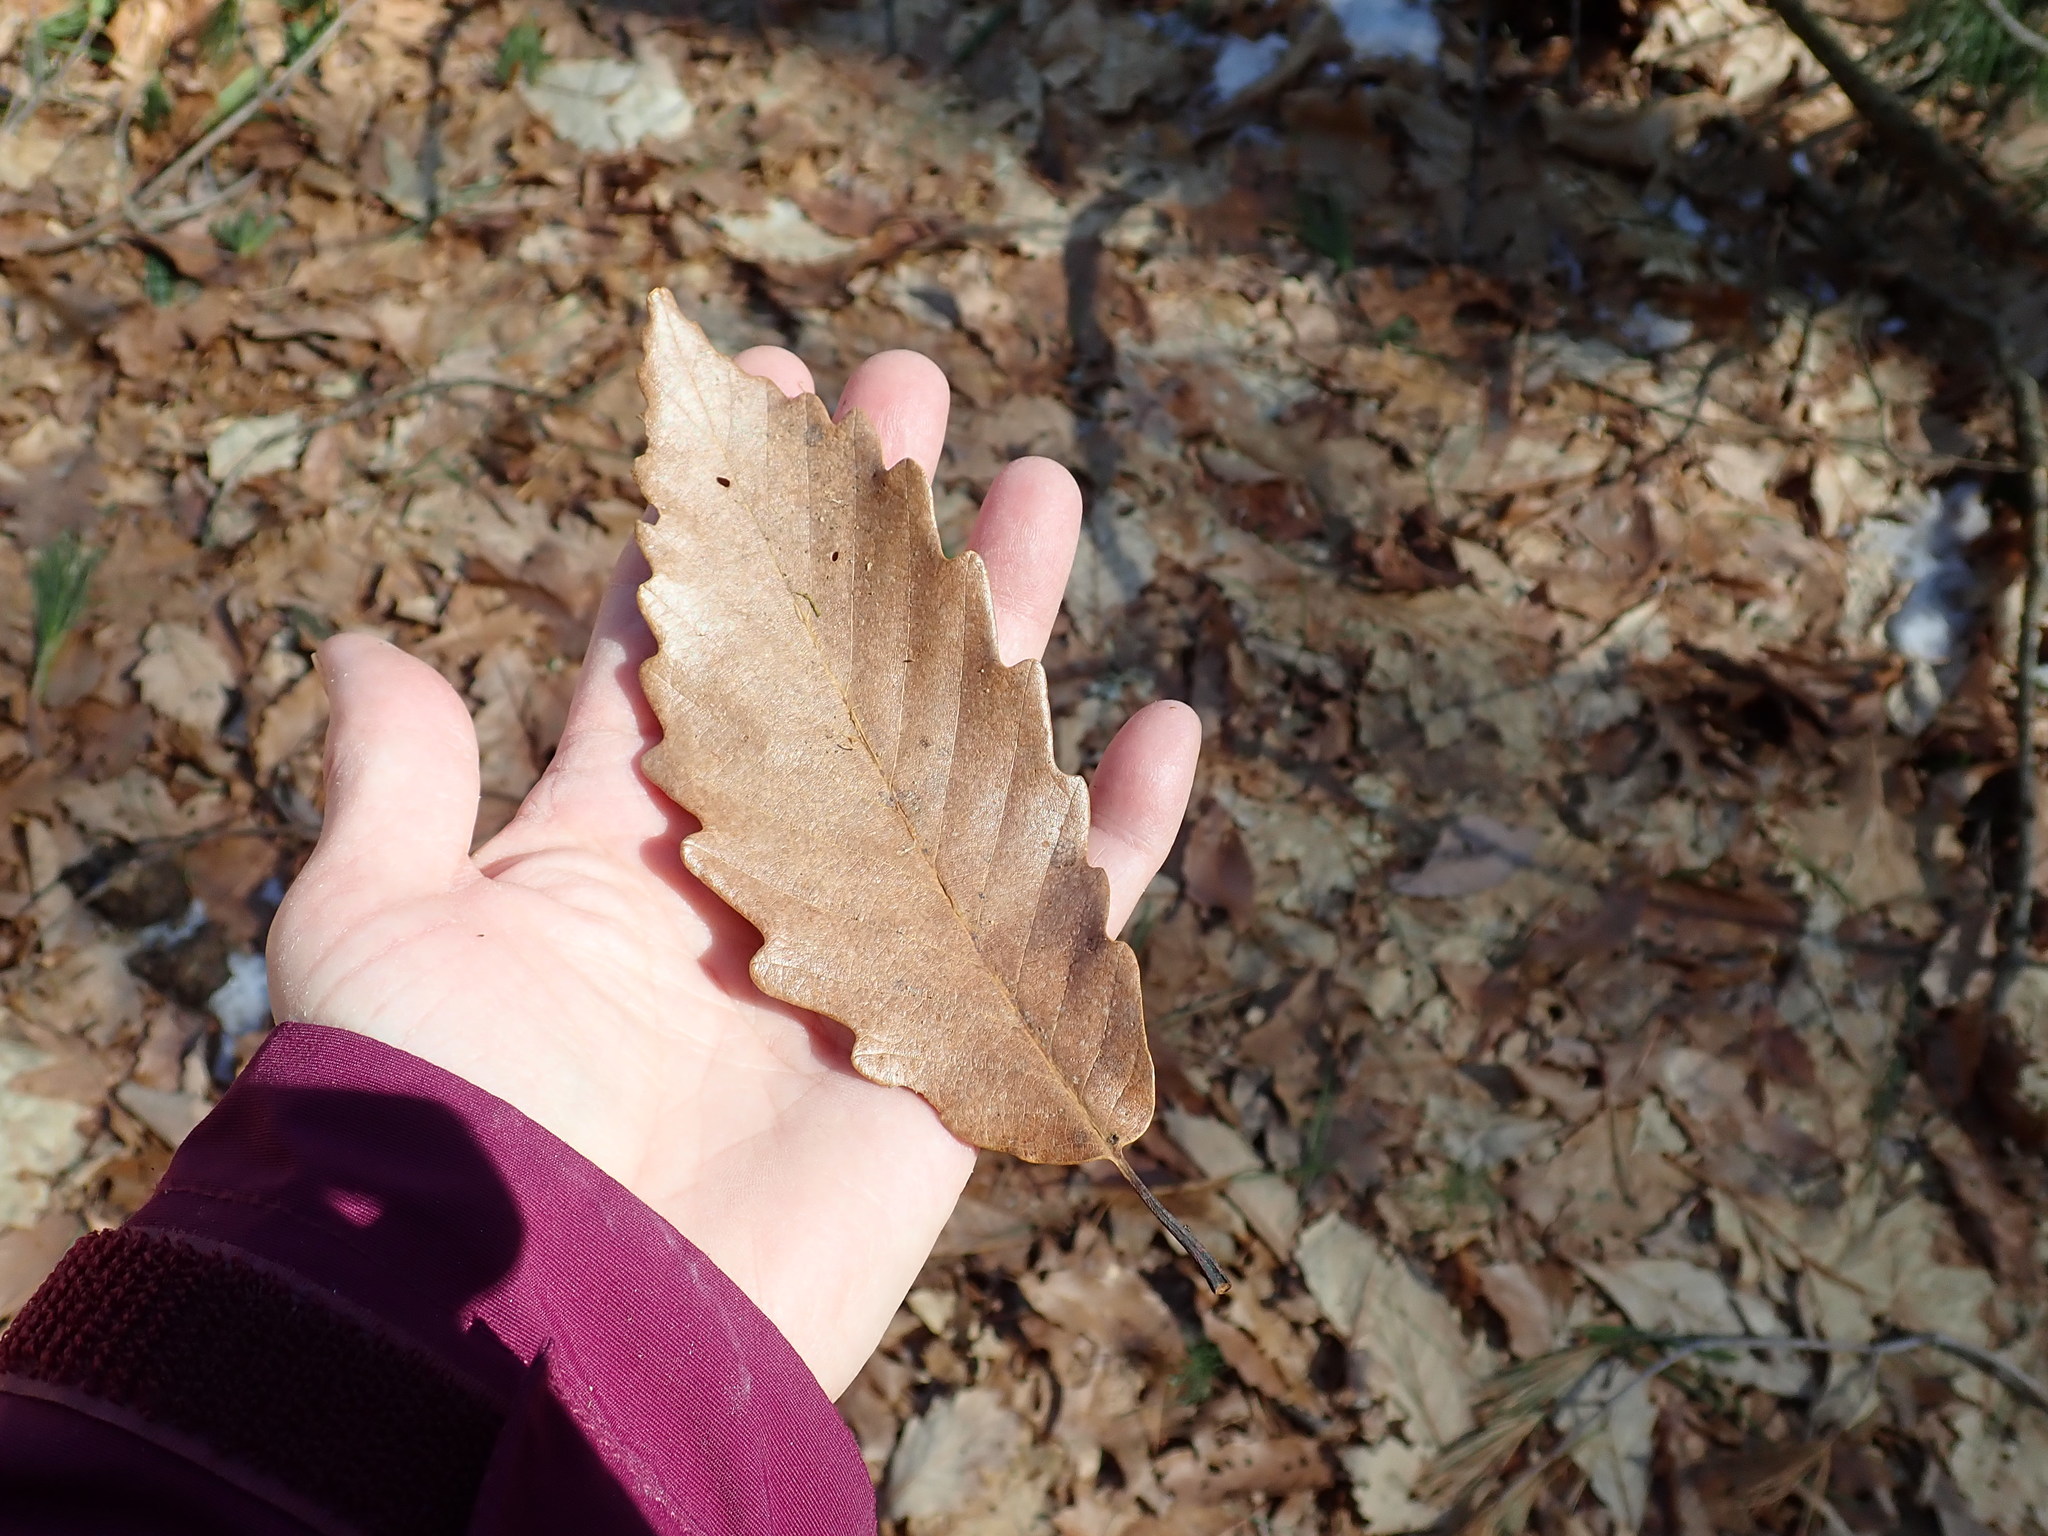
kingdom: Plantae
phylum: Tracheophyta
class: Magnoliopsida
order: Fagales
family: Fagaceae
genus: Quercus
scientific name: Quercus montana
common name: Chestnut oak
